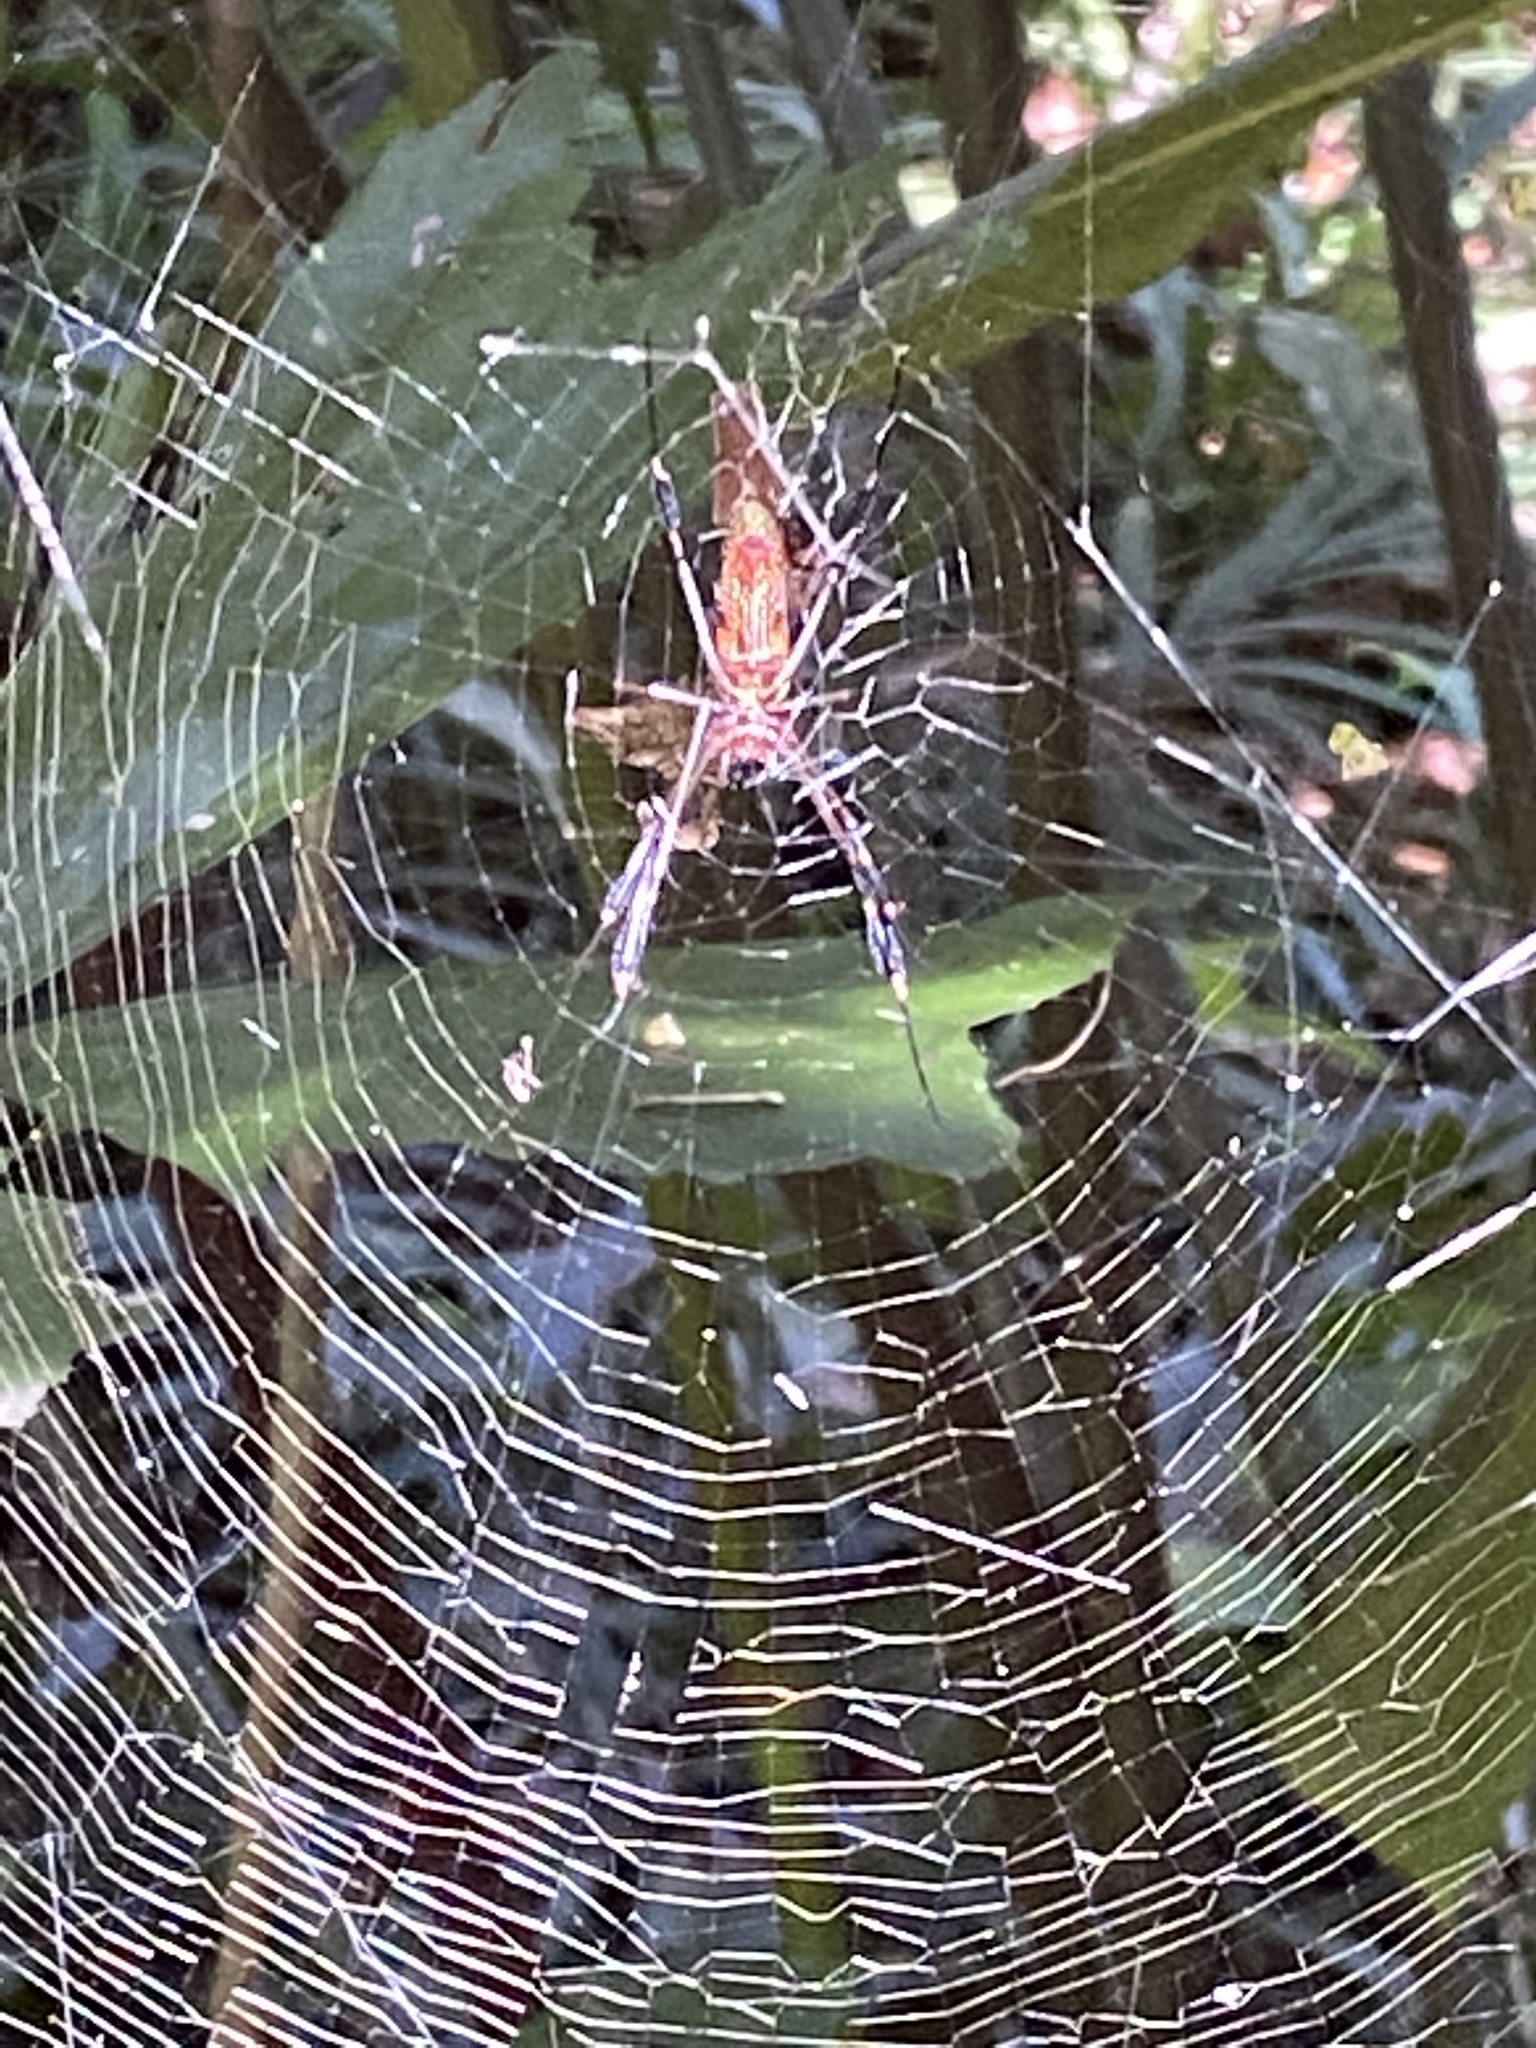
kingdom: Animalia
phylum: Arthropoda
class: Arachnida
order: Araneae
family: Araneidae
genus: Trichonephila
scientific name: Trichonephila clavipes
